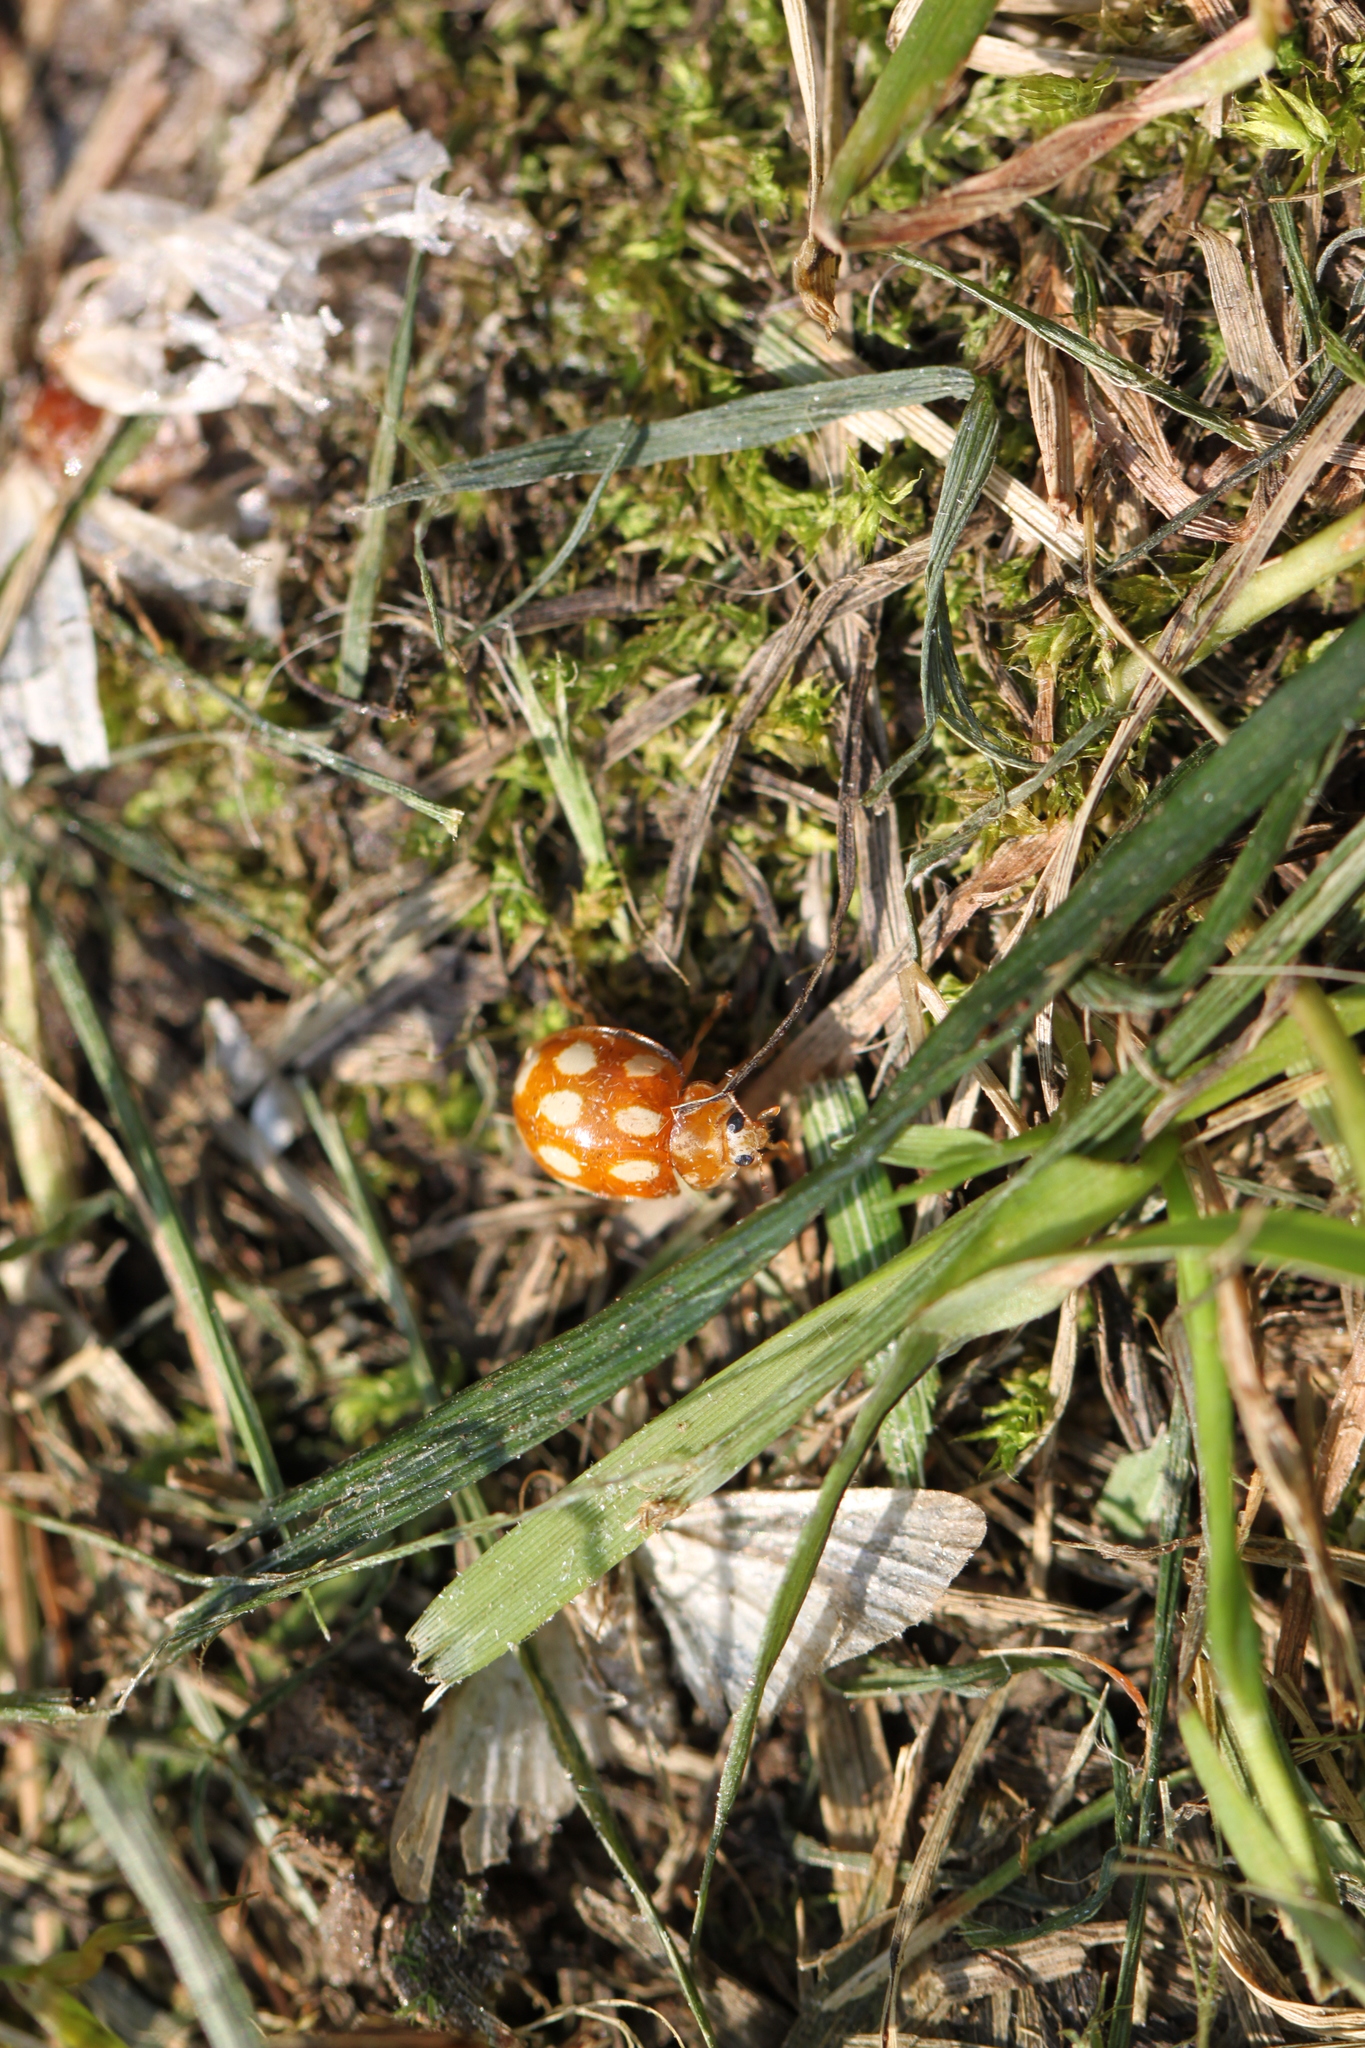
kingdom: Animalia
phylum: Arthropoda
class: Insecta
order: Coleoptera
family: Coccinellidae
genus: Calvia
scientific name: Calvia decemguttata
